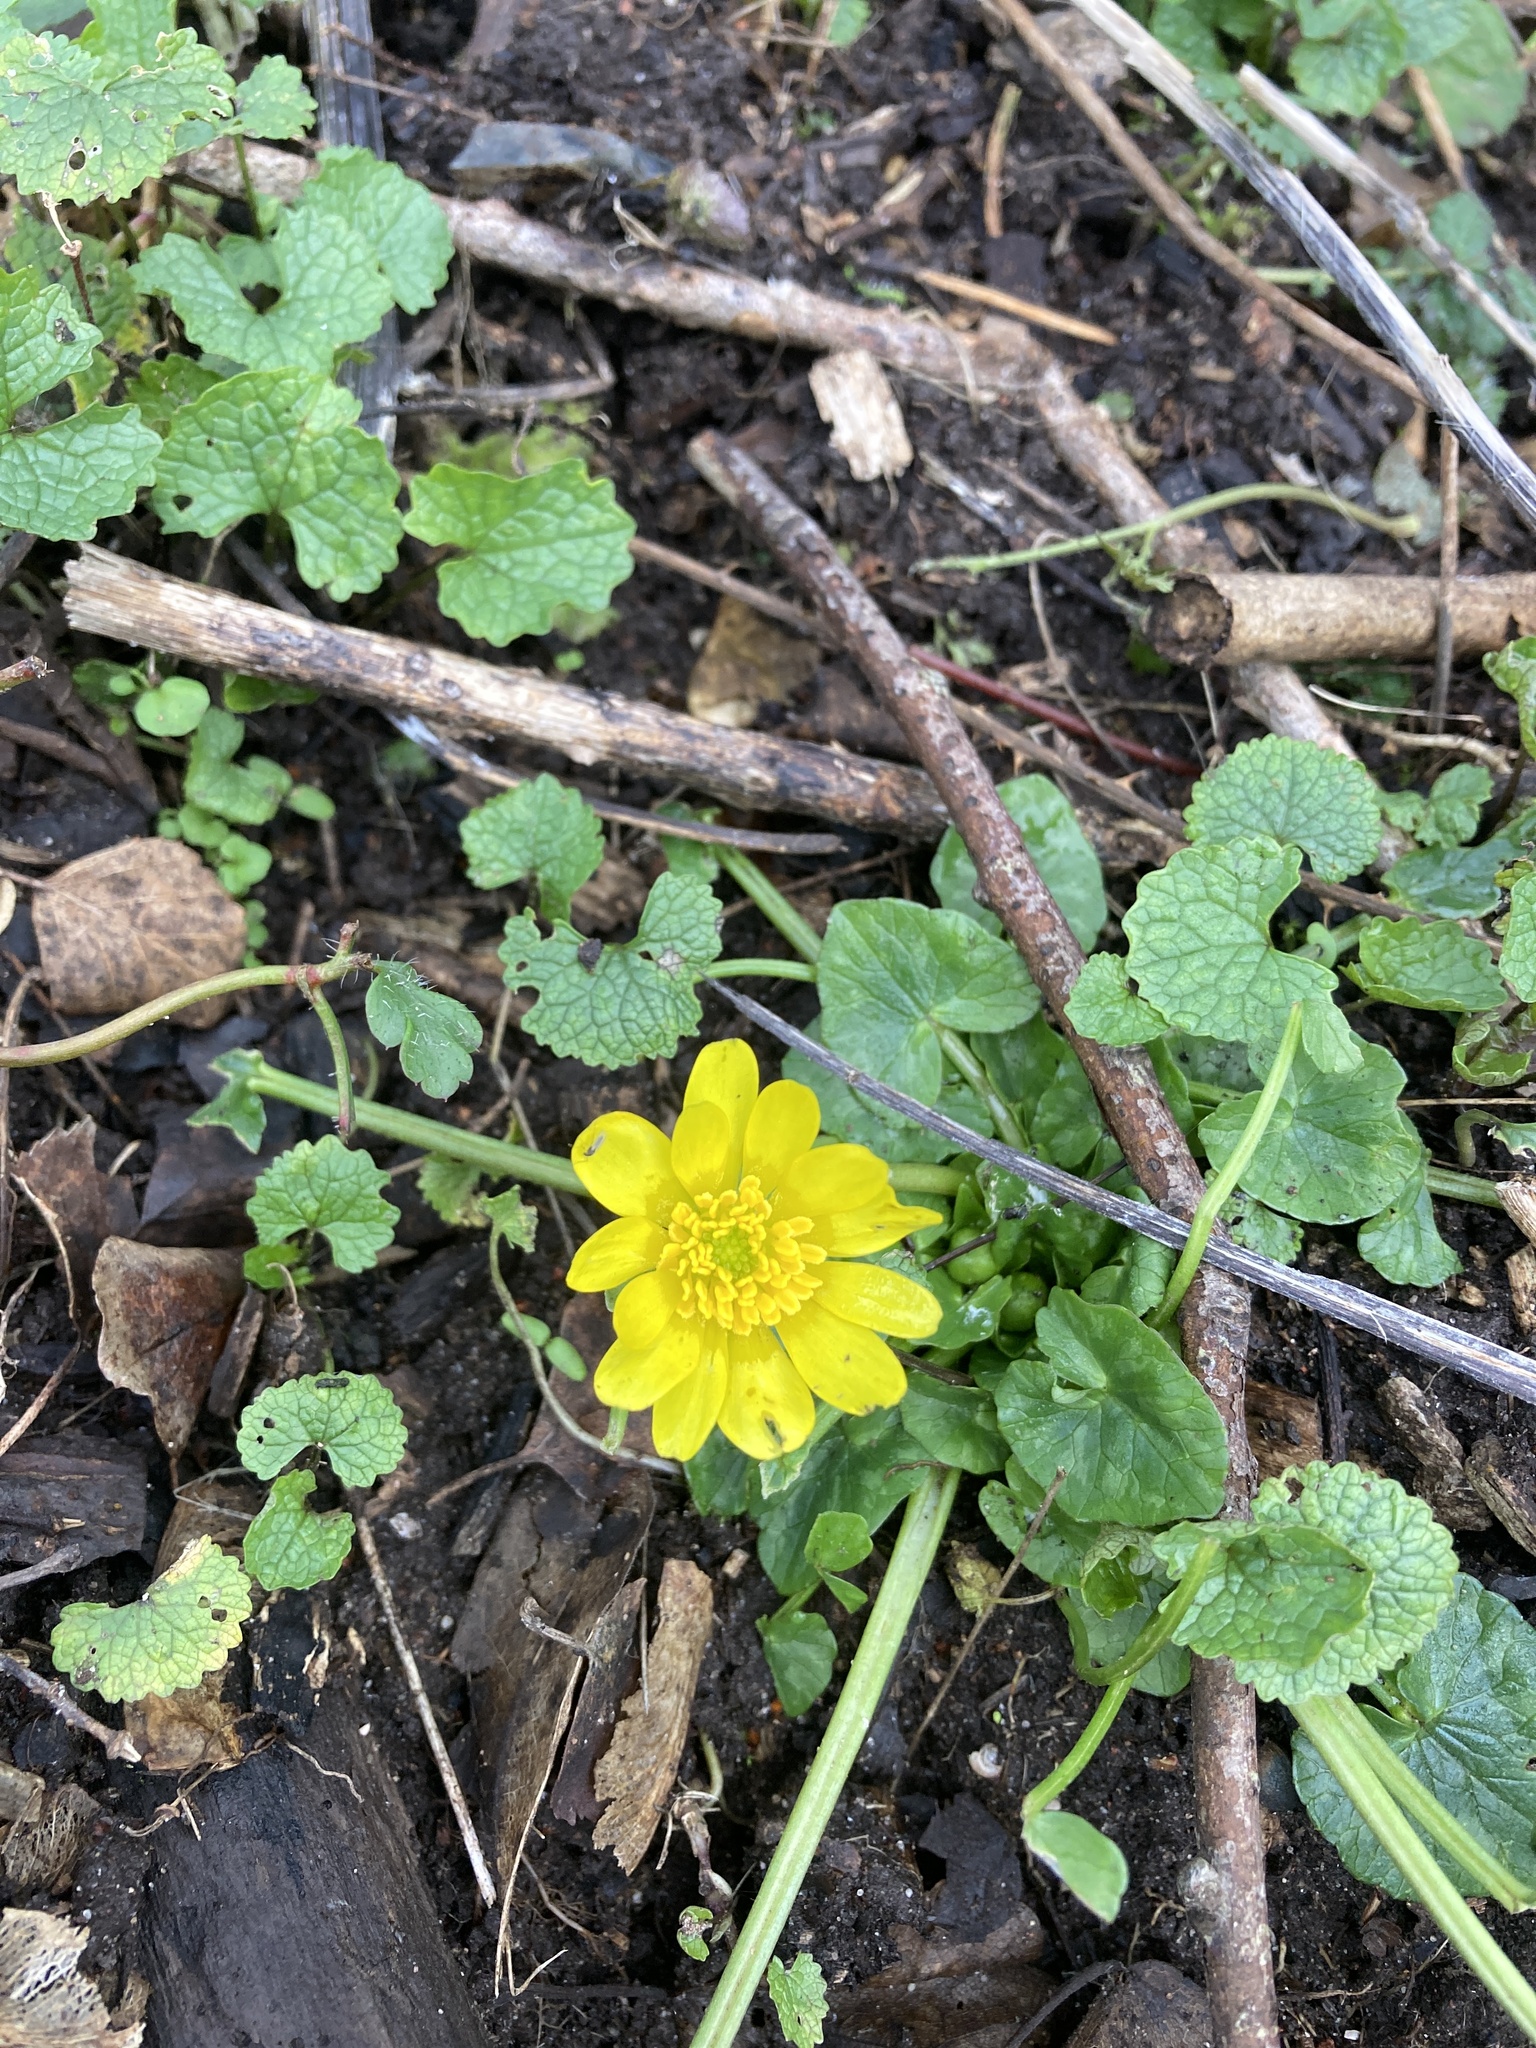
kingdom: Plantae
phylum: Tracheophyta
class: Magnoliopsida
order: Ranunculales
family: Ranunculaceae
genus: Ficaria
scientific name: Ficaria verna
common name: Lesser celandine
